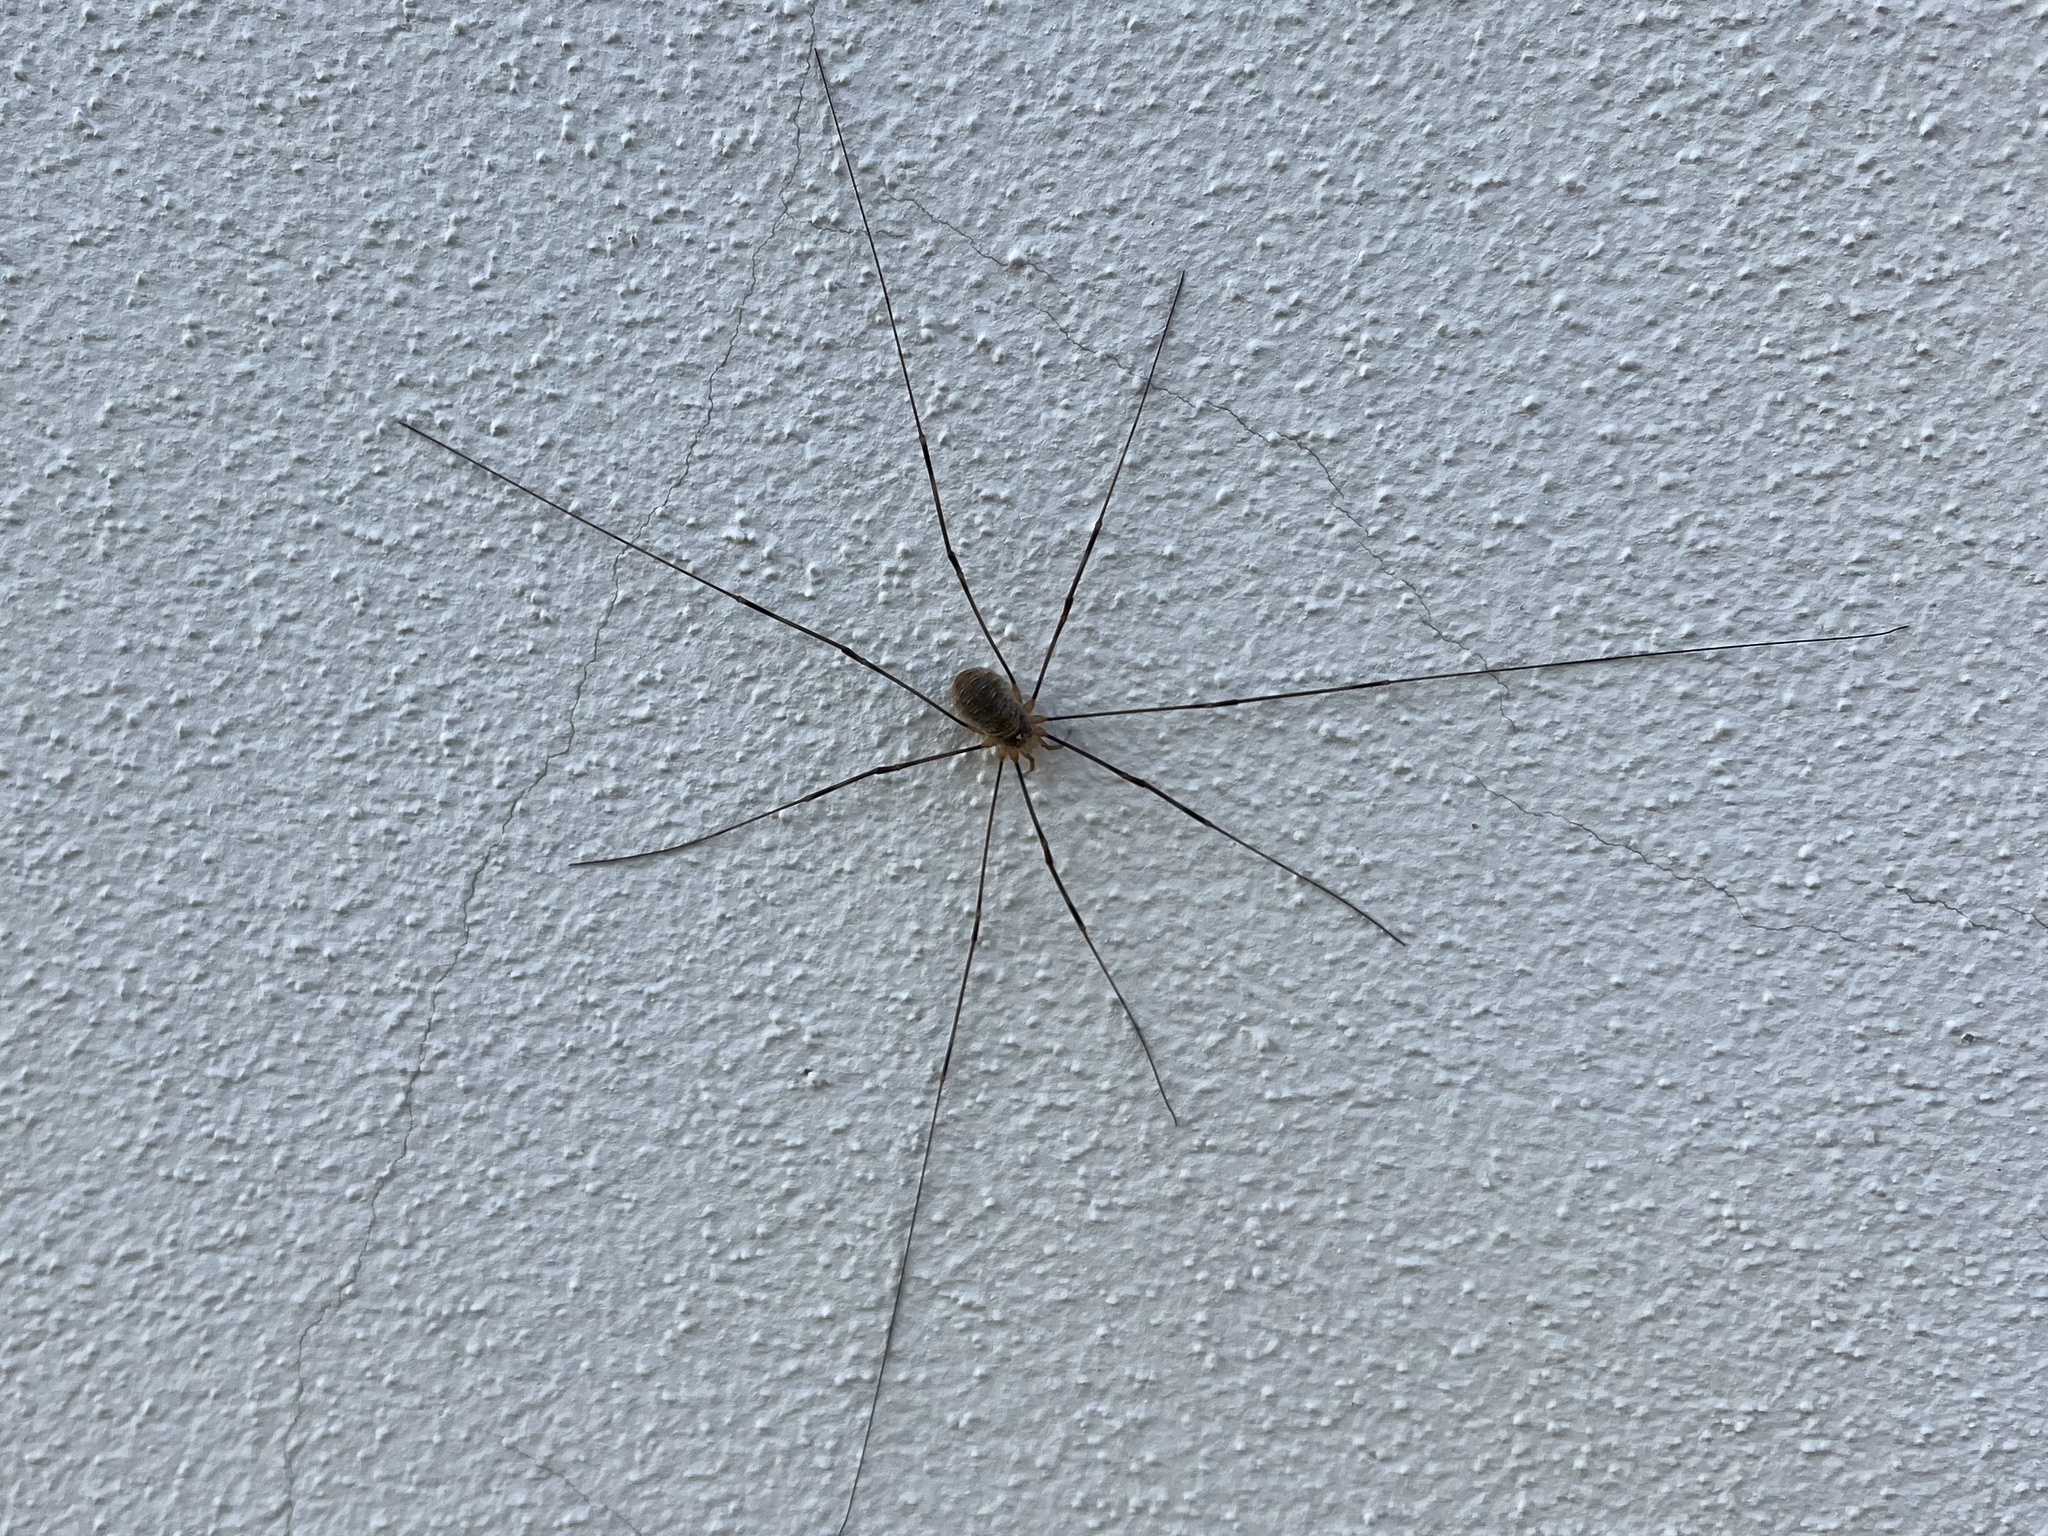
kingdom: Animalia
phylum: Arthropoda
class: Arachnida
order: Opiliones
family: Phalangiidae
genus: Opilio
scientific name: Opilio canestrinii
